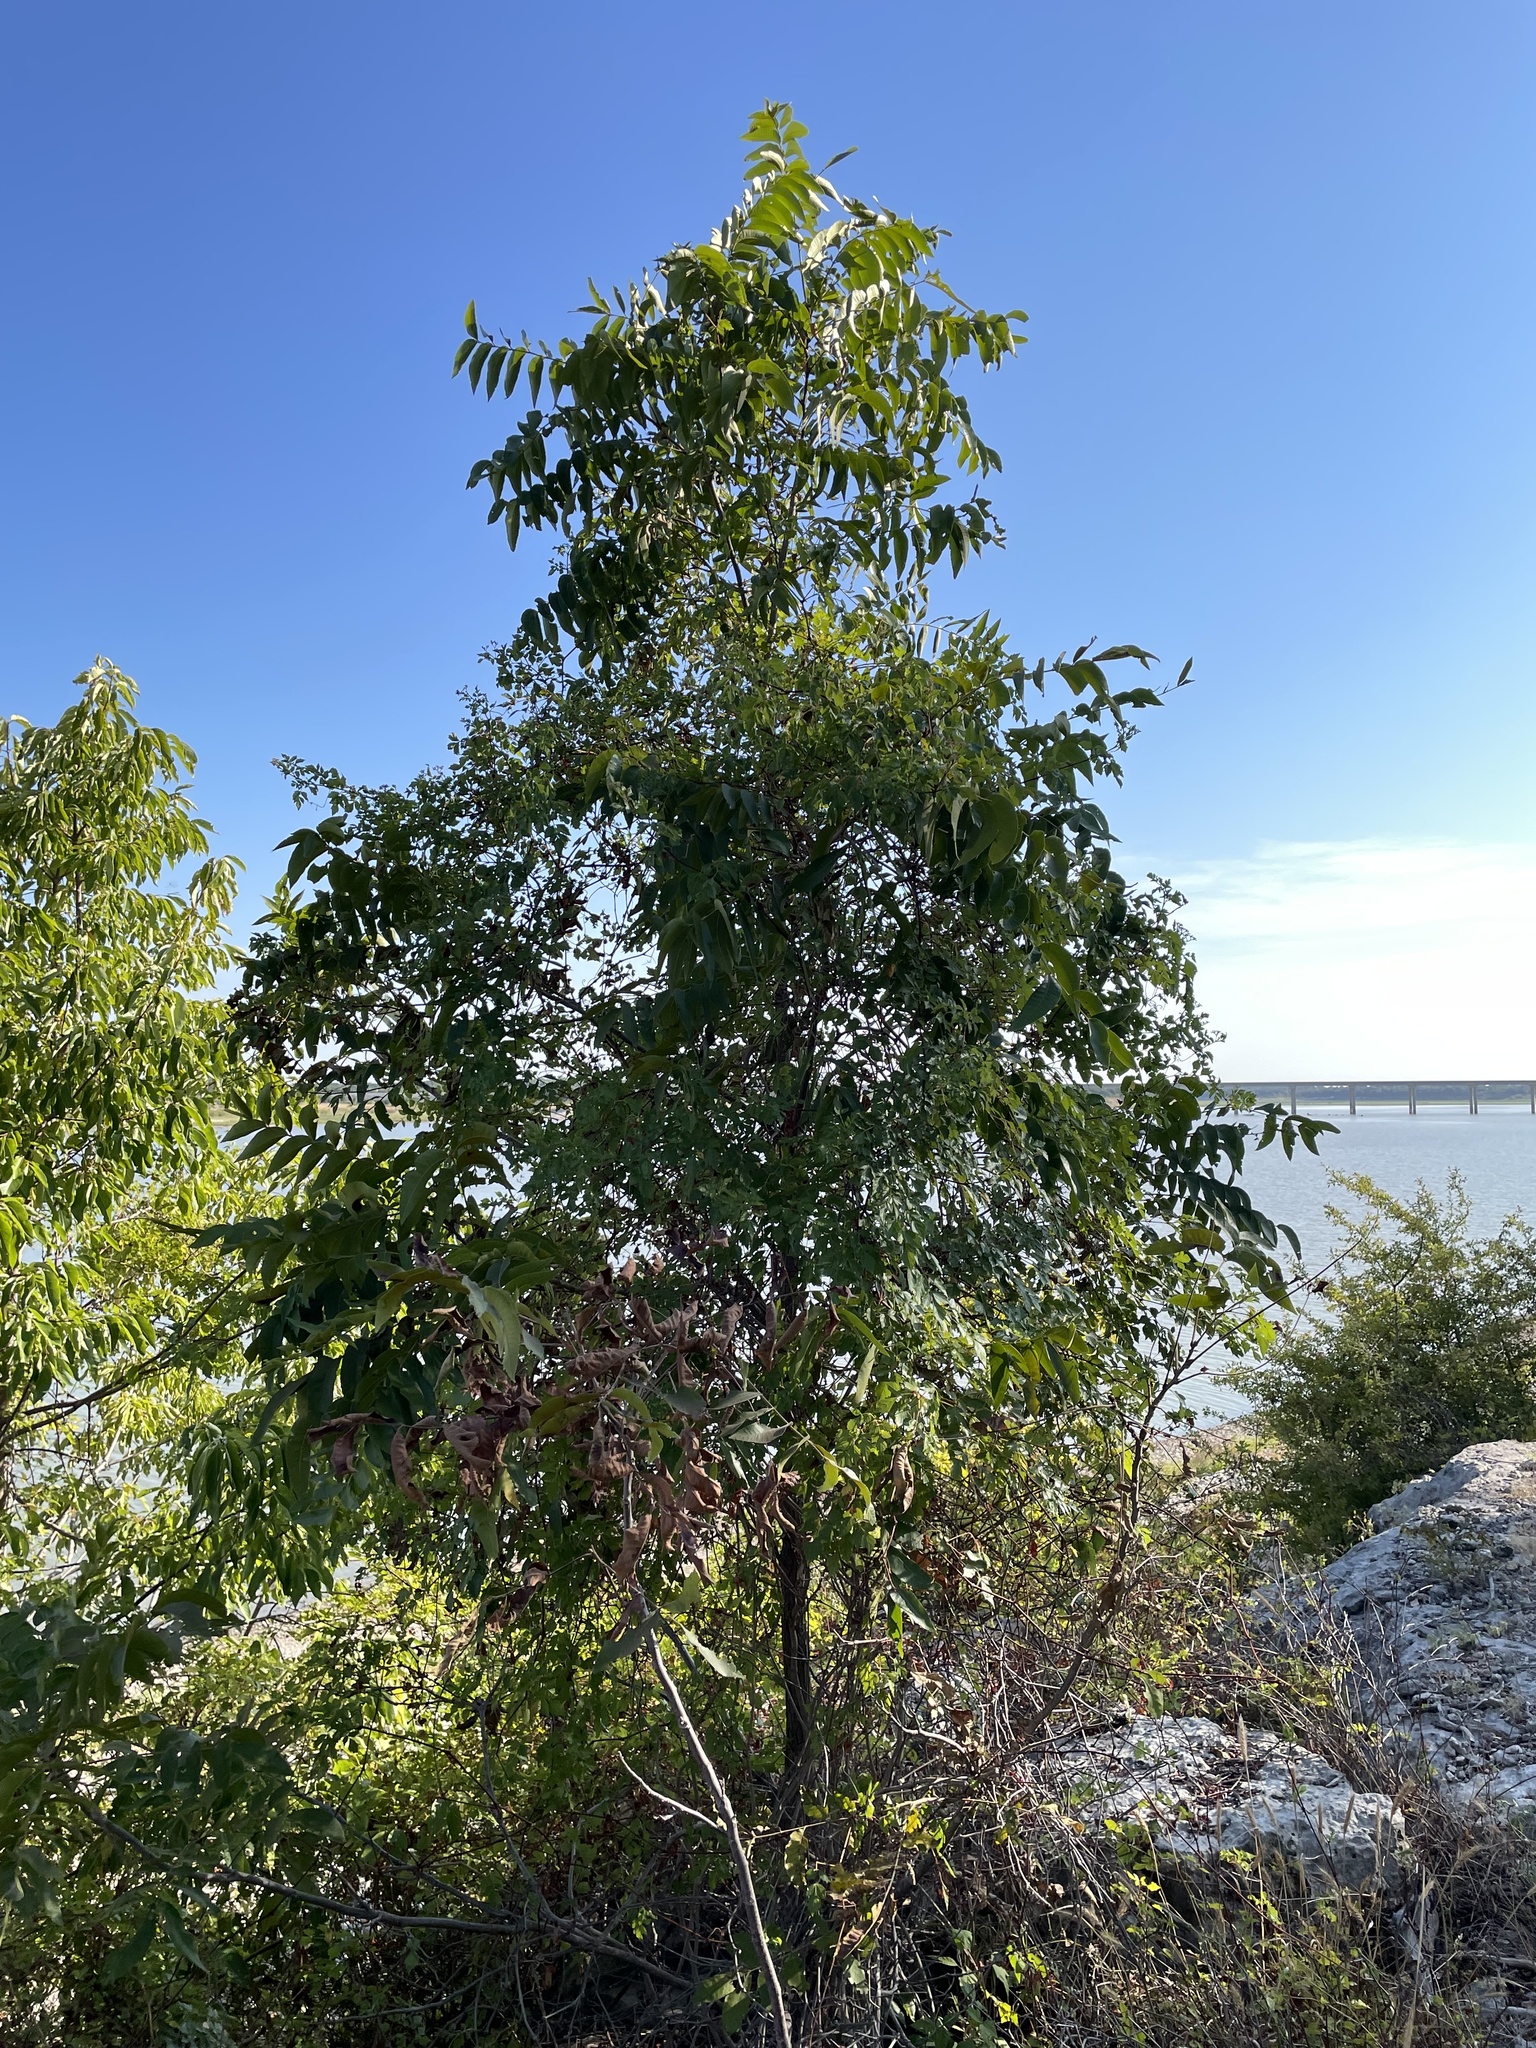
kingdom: Plantae
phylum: Tracheophyta
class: Magnoliopsida
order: Fagales
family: Juglandaceae
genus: Carya
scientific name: Carya illinoinensis
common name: Pecan
